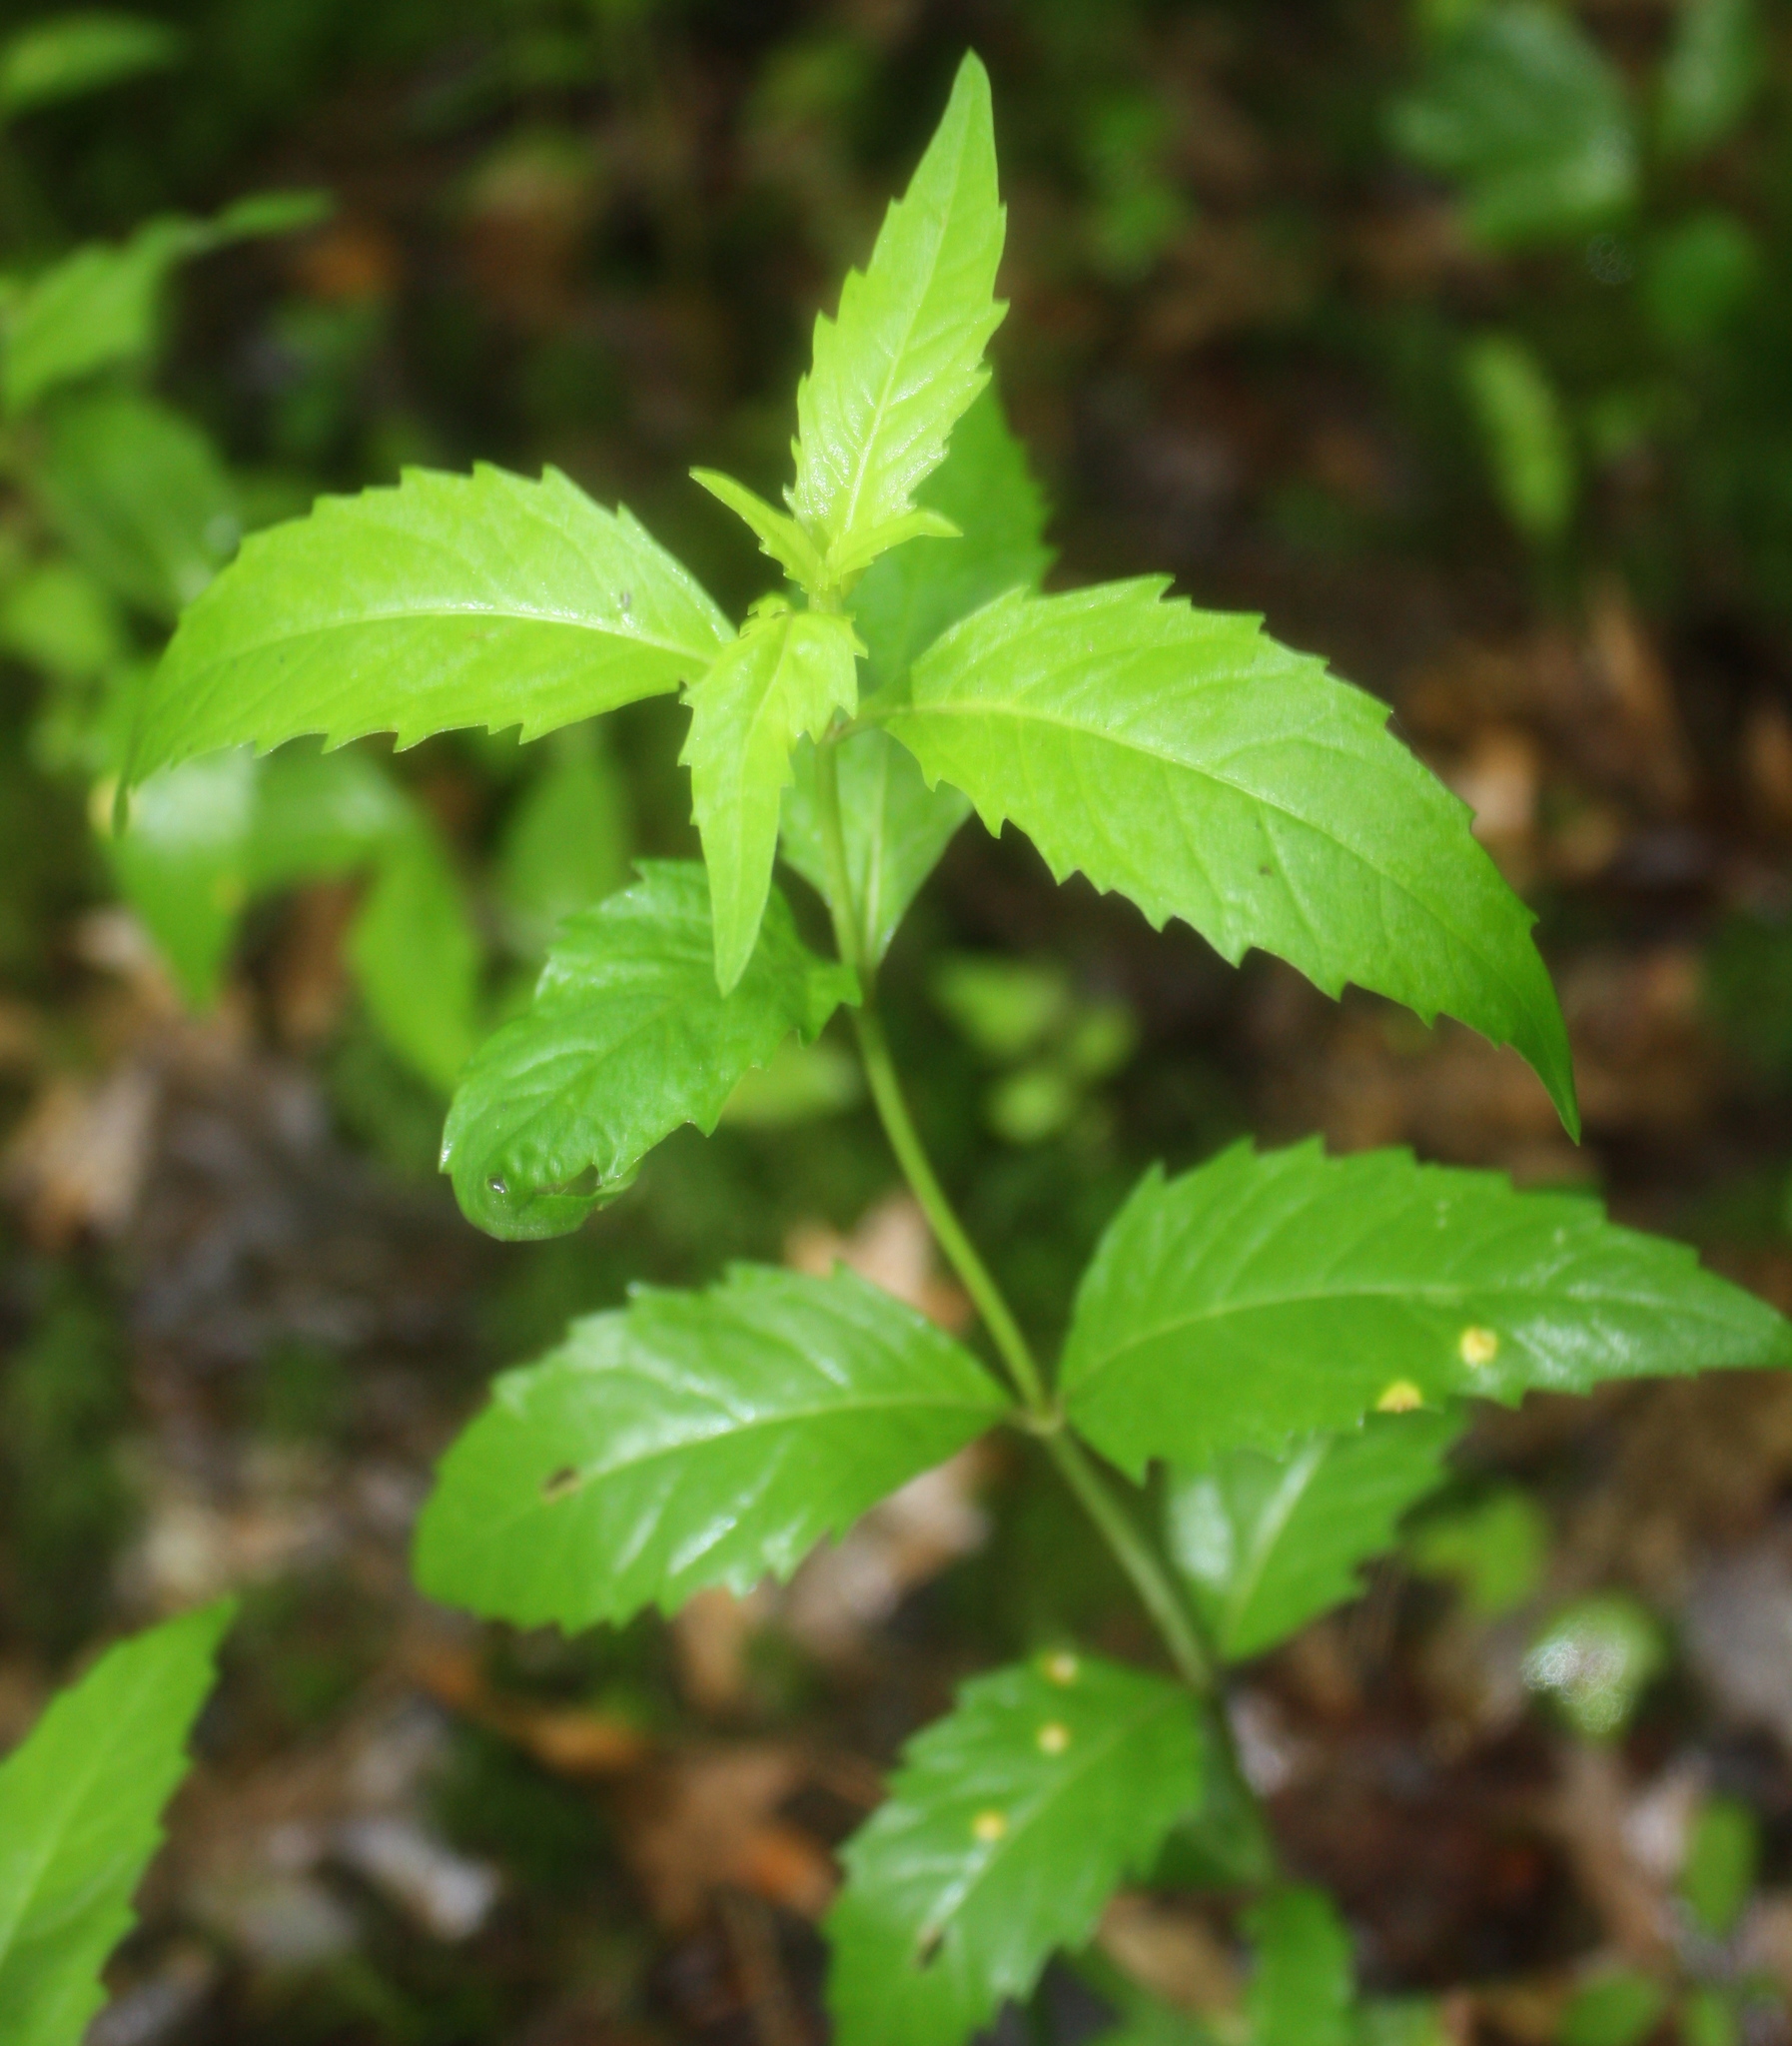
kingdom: Plantae
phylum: Tracheophyta
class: Magnoliopsida
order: Lamiales
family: Lamiaceae
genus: Lycopus
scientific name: Lycopus uniflorus
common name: Northern bugleweed
